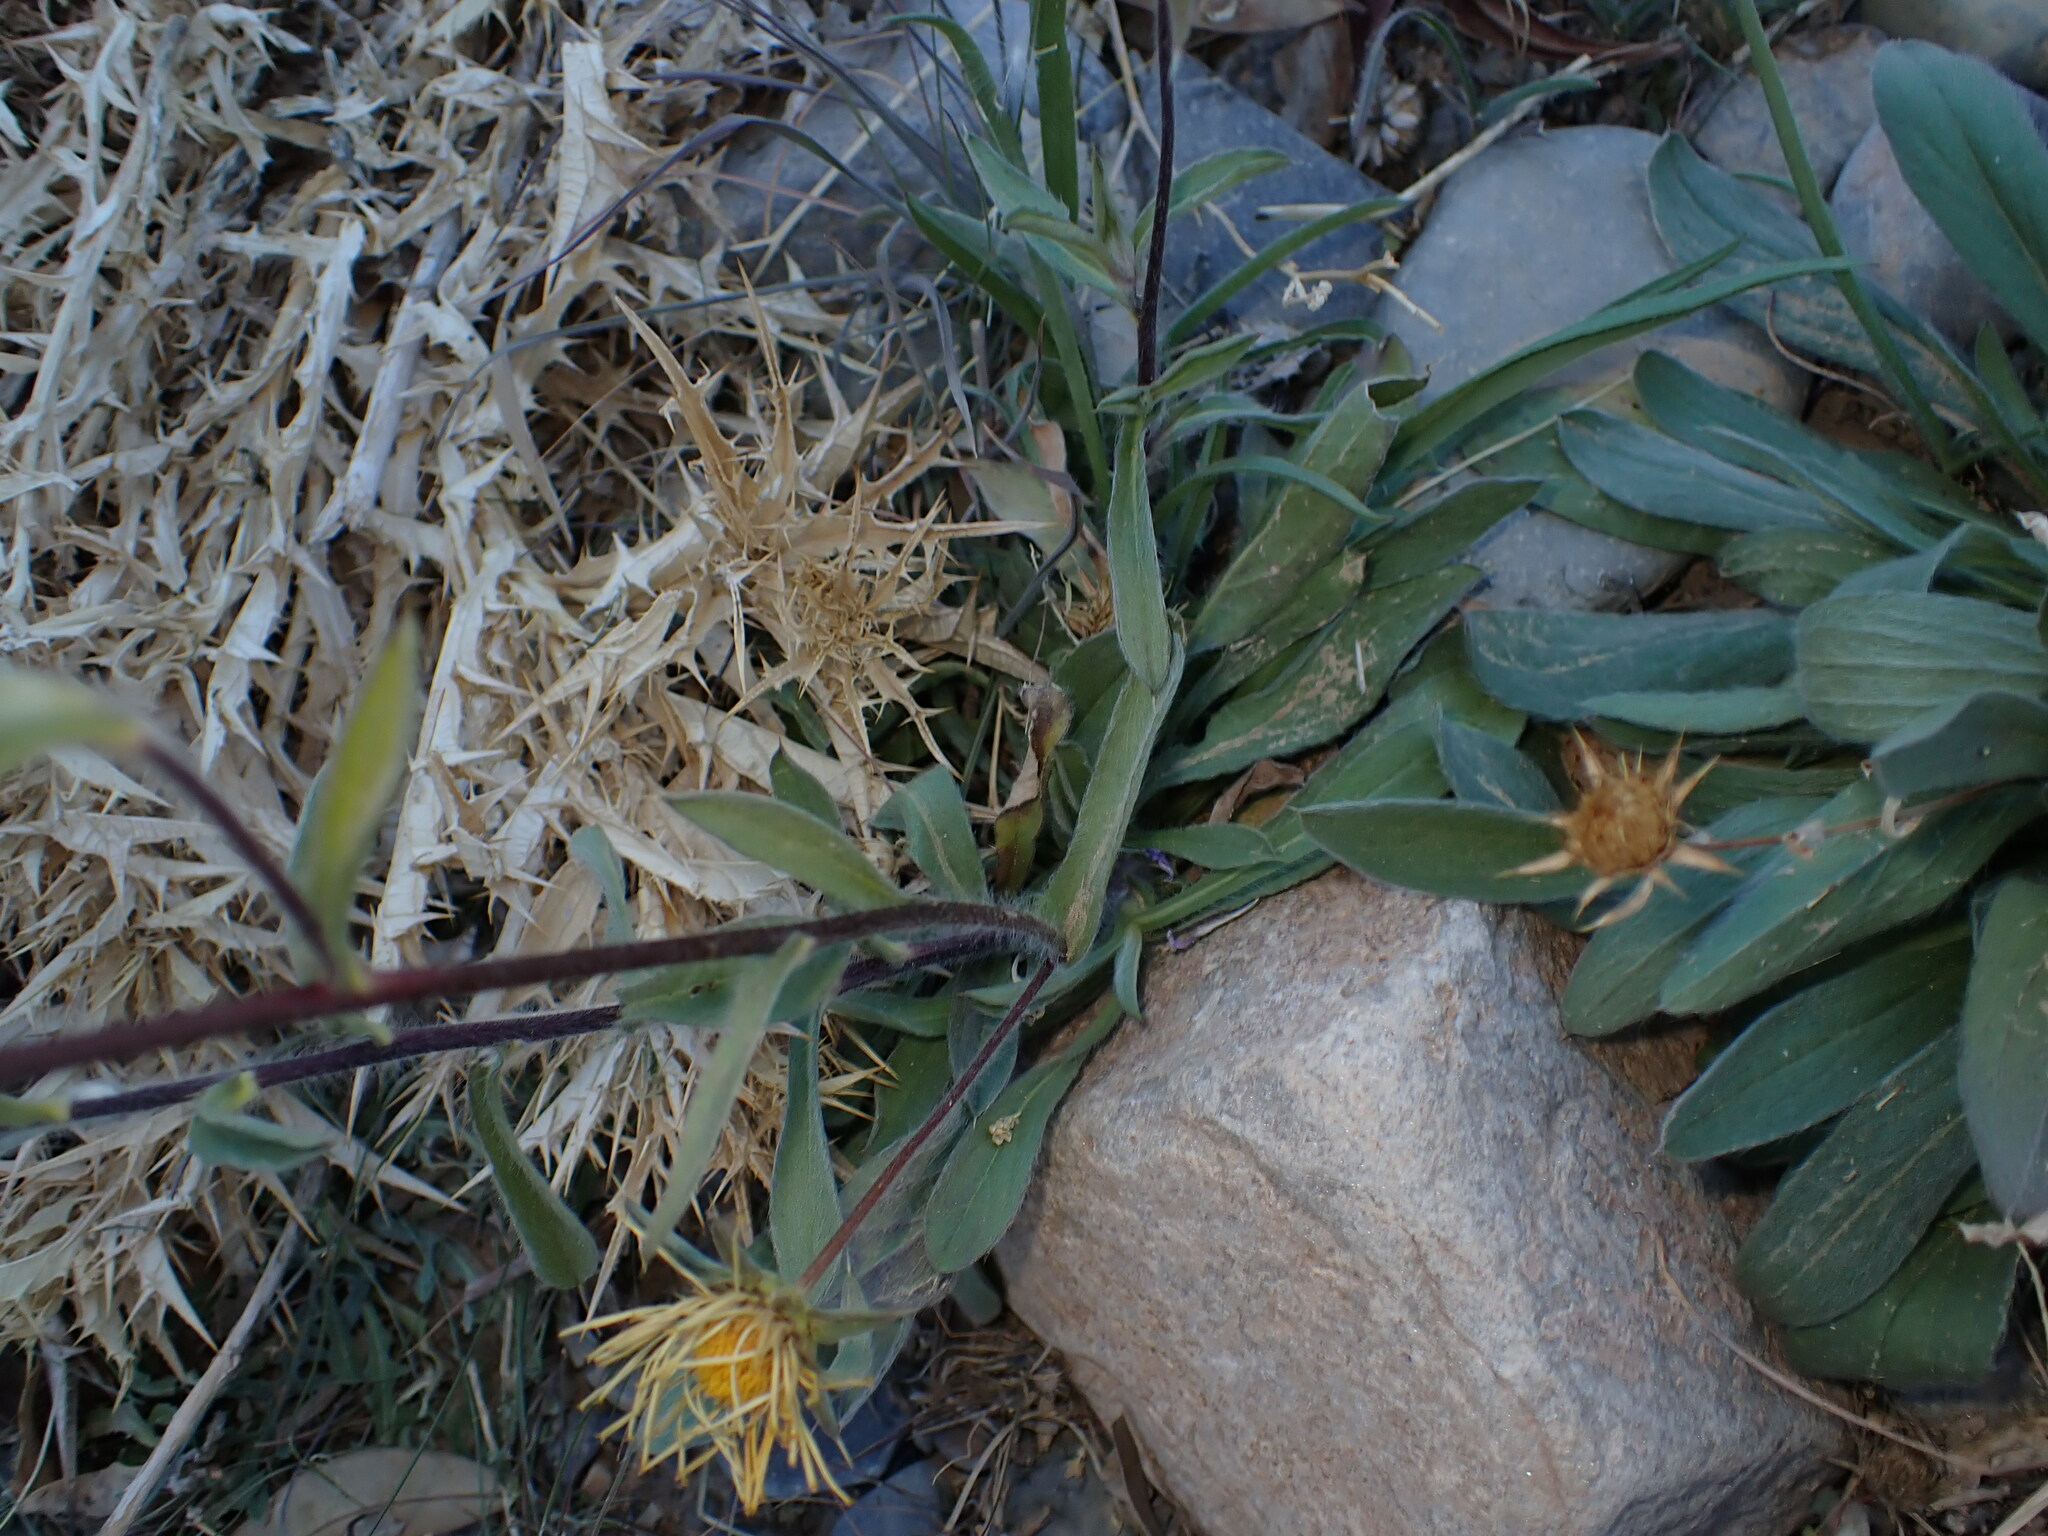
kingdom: Plantae
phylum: Tracheophyta
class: Magnoliopsida
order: Asterales
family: Asteraceae
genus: Pallenis
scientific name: Pallenis cuspidata
